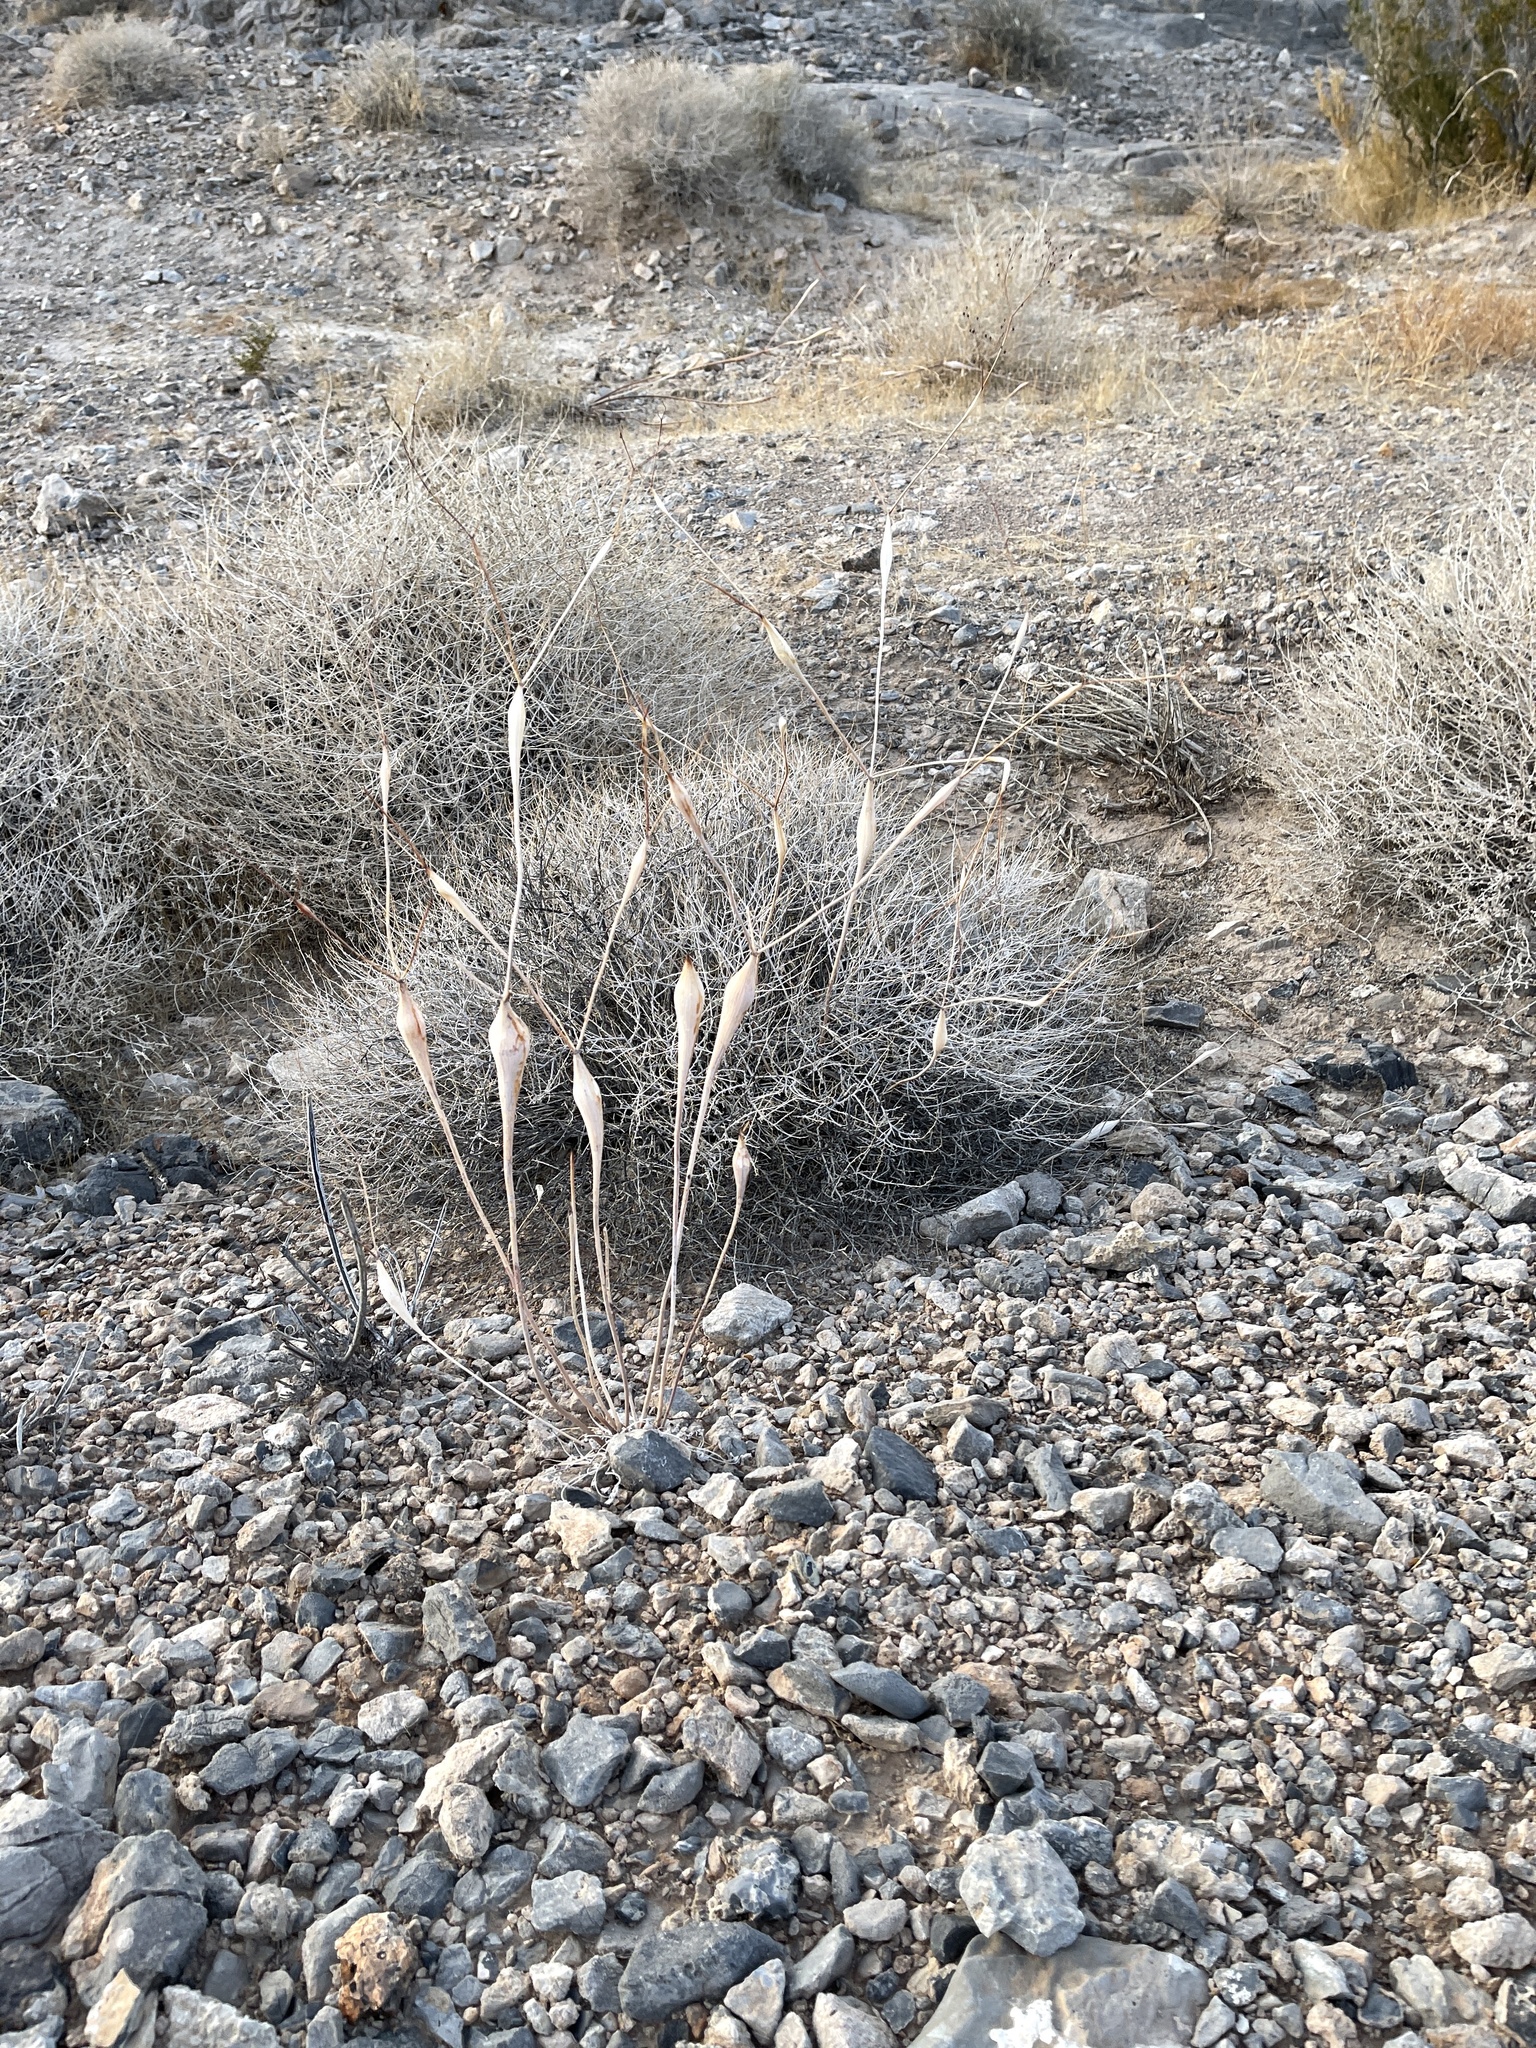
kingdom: Plantae
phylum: Tracheophyta
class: Magnoliopsida
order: Caryophyllales
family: Polygonaceae
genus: Eriogonum
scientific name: Eriogonum inflatum
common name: Desert trumpet
